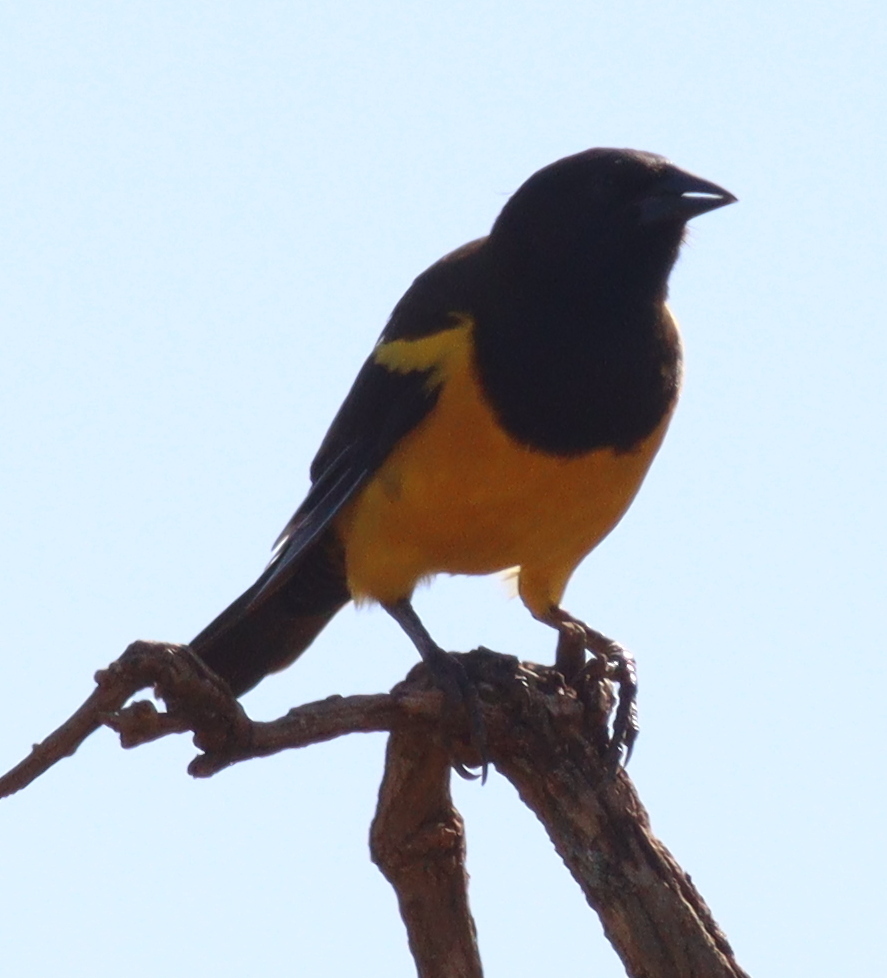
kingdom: Animalia
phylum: Chordata
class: Aves
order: Passeriformes
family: Icteridae
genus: Pseudoleistes
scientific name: Pseudoleistes guirahuro
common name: Yellow-rumped marshbird
